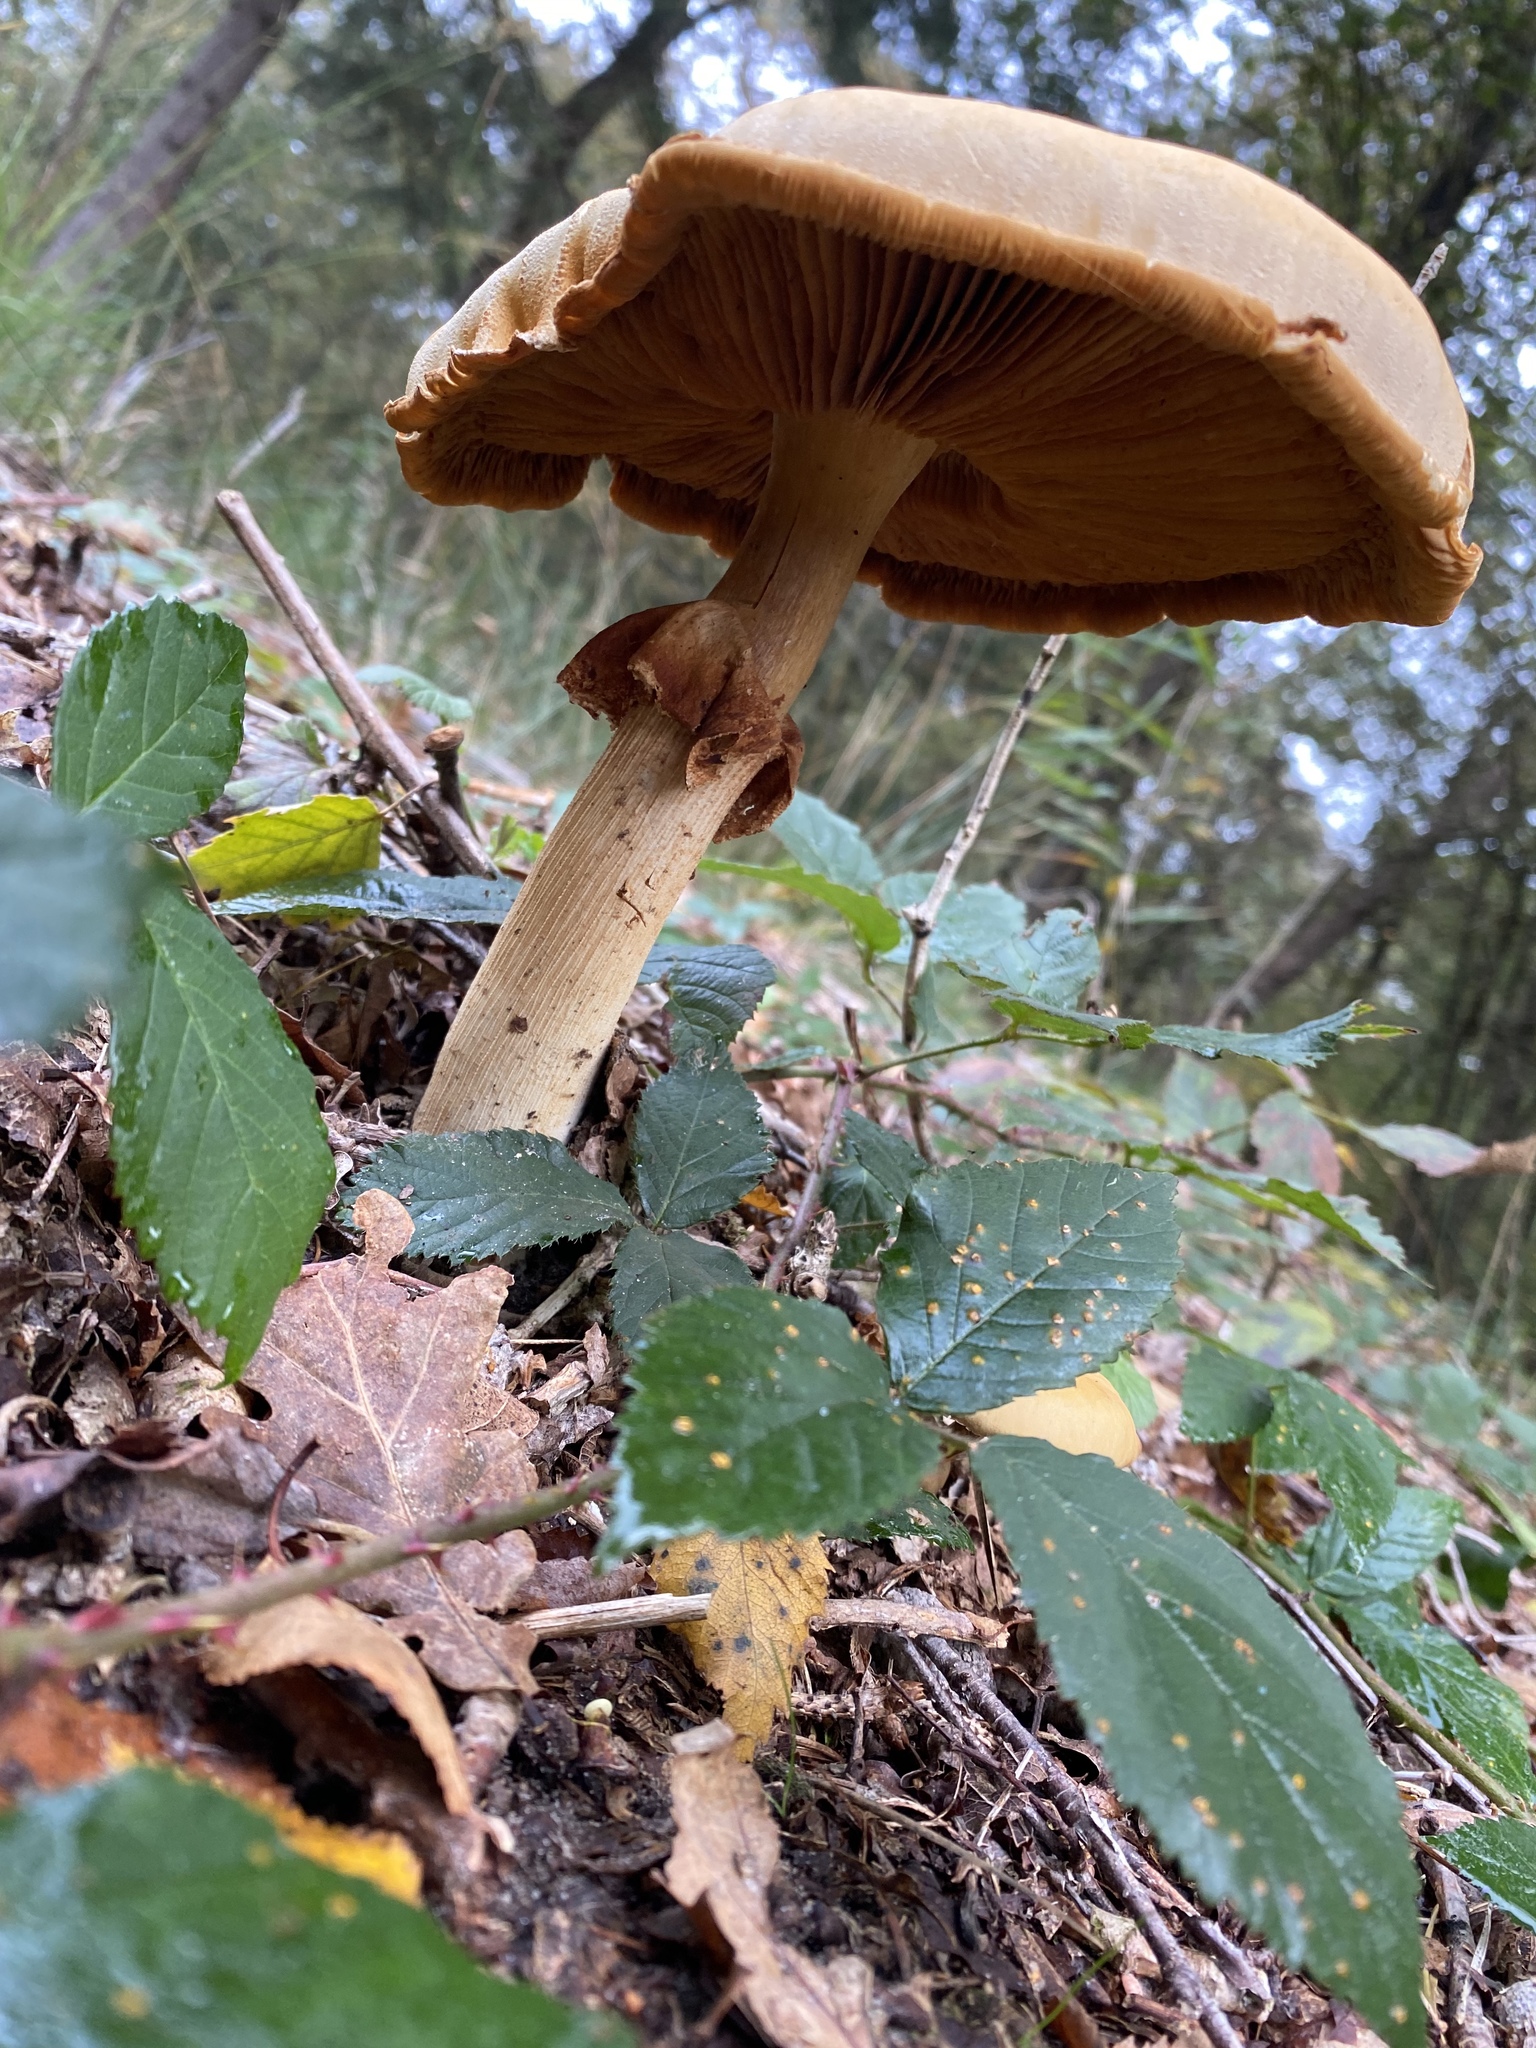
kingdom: Fungi
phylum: Basidiomycota
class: Agaricomycetes
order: Agaricales
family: Hymenogastraceae
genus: Gymnopilus
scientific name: Gymnopilus junonius
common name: Spectacular rustgill
